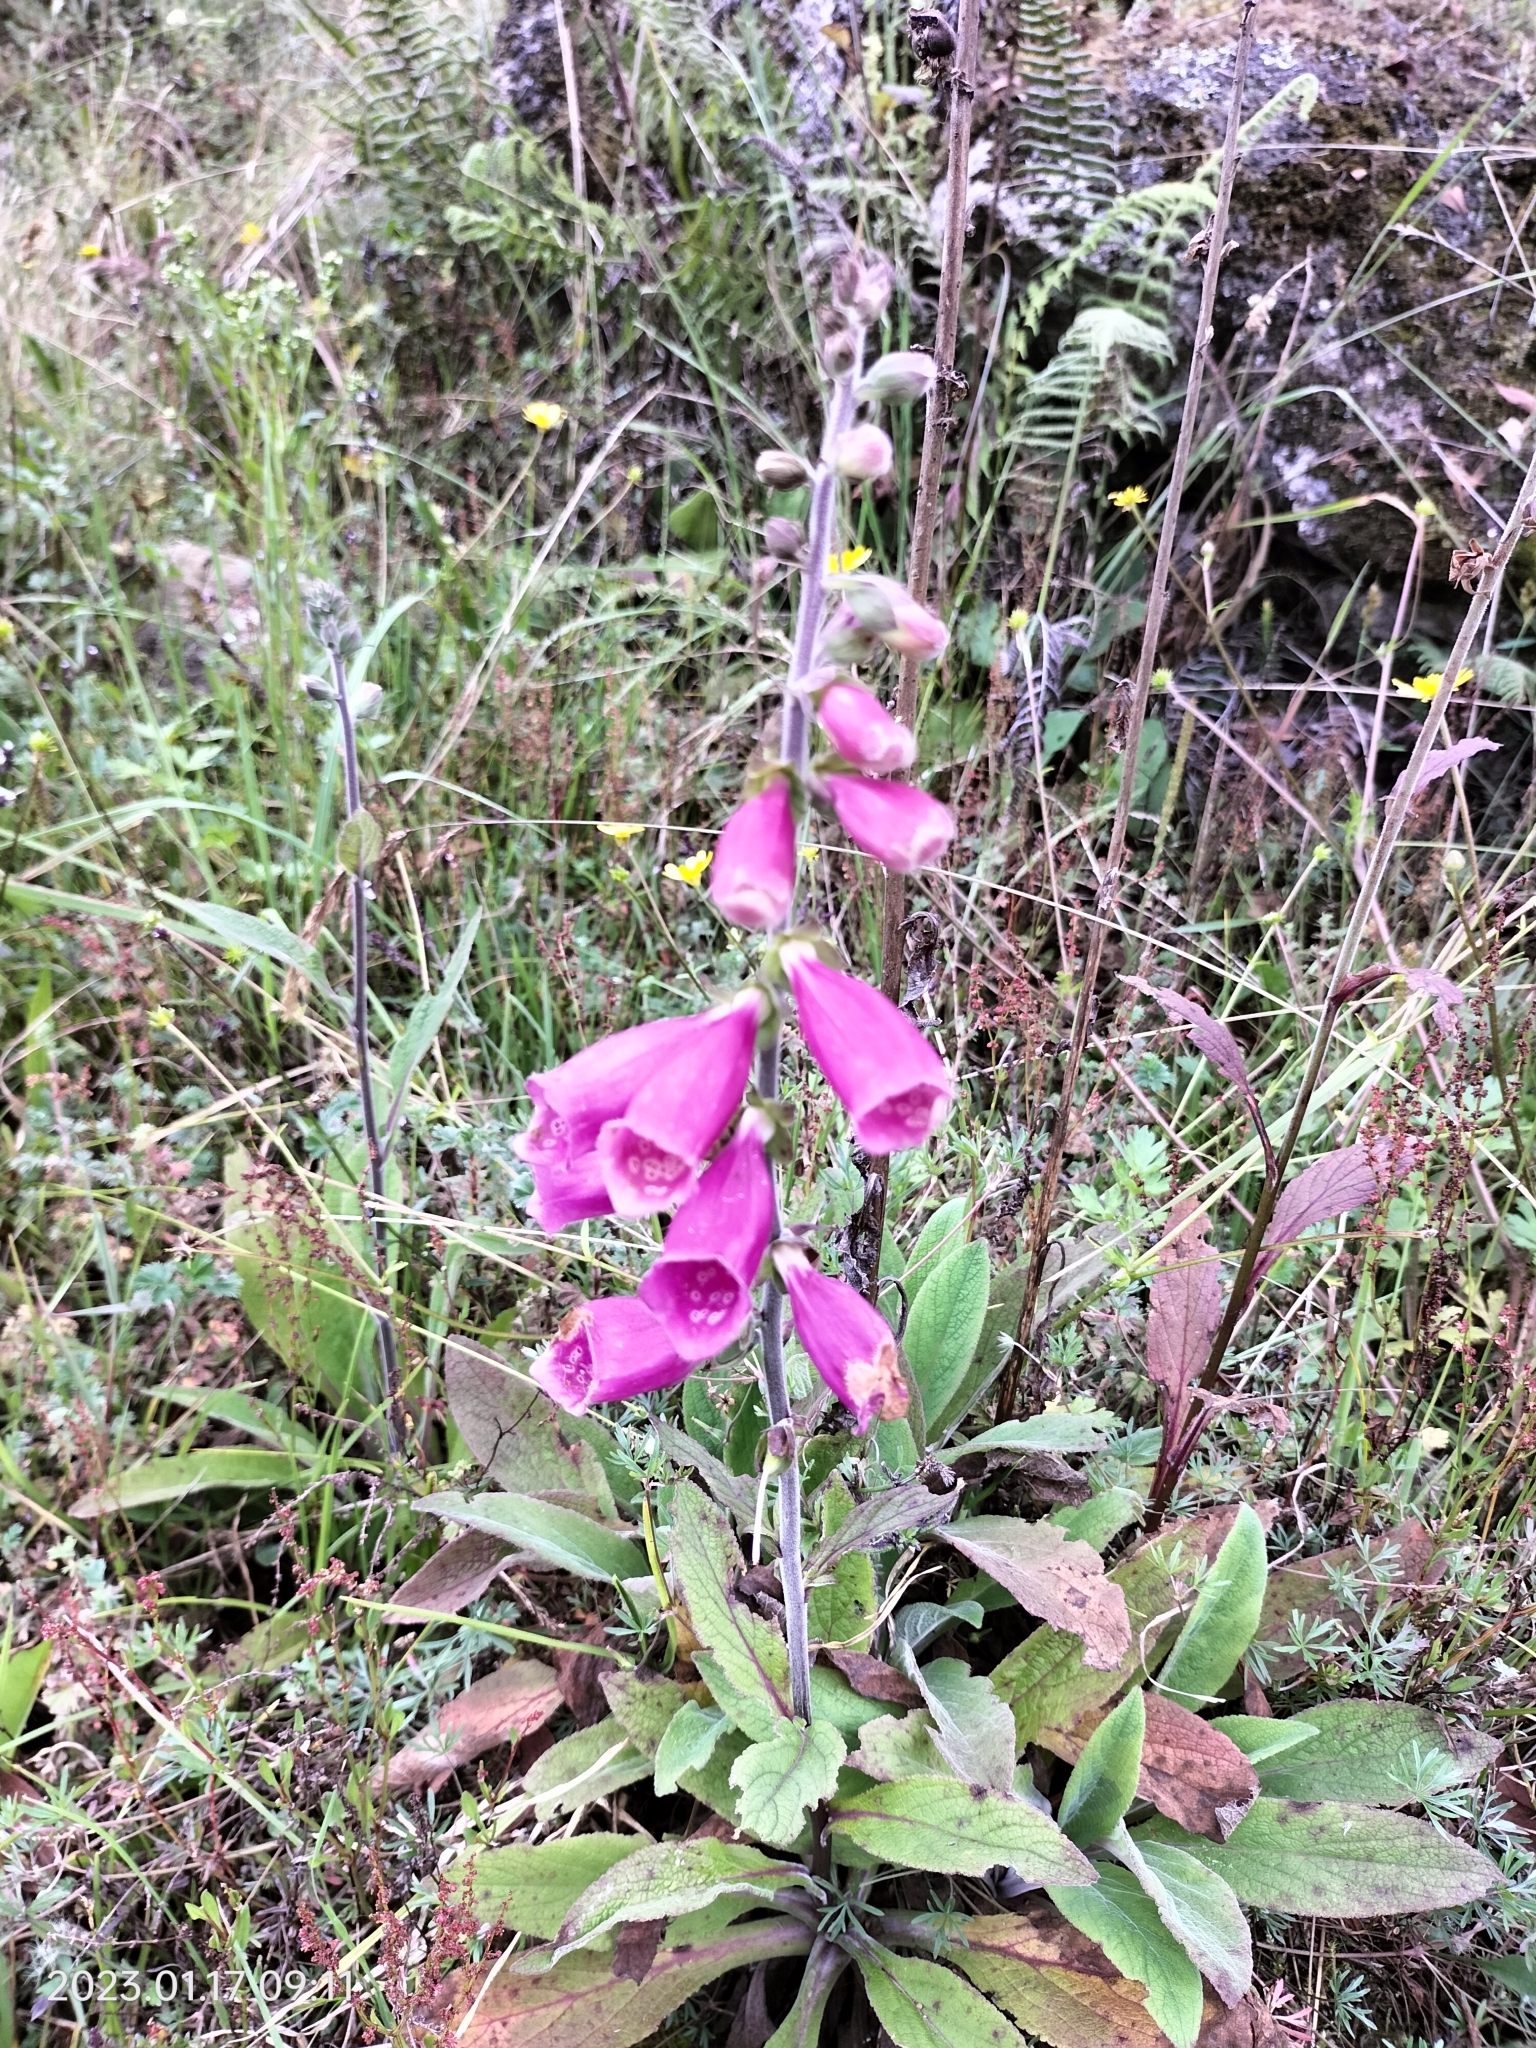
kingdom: Plantae
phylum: Tracheophyta
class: Magnoliopsida
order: Lamiales
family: Plantaginaceae
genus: Digitalis
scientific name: Digitalis purpurea
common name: Foxglove
